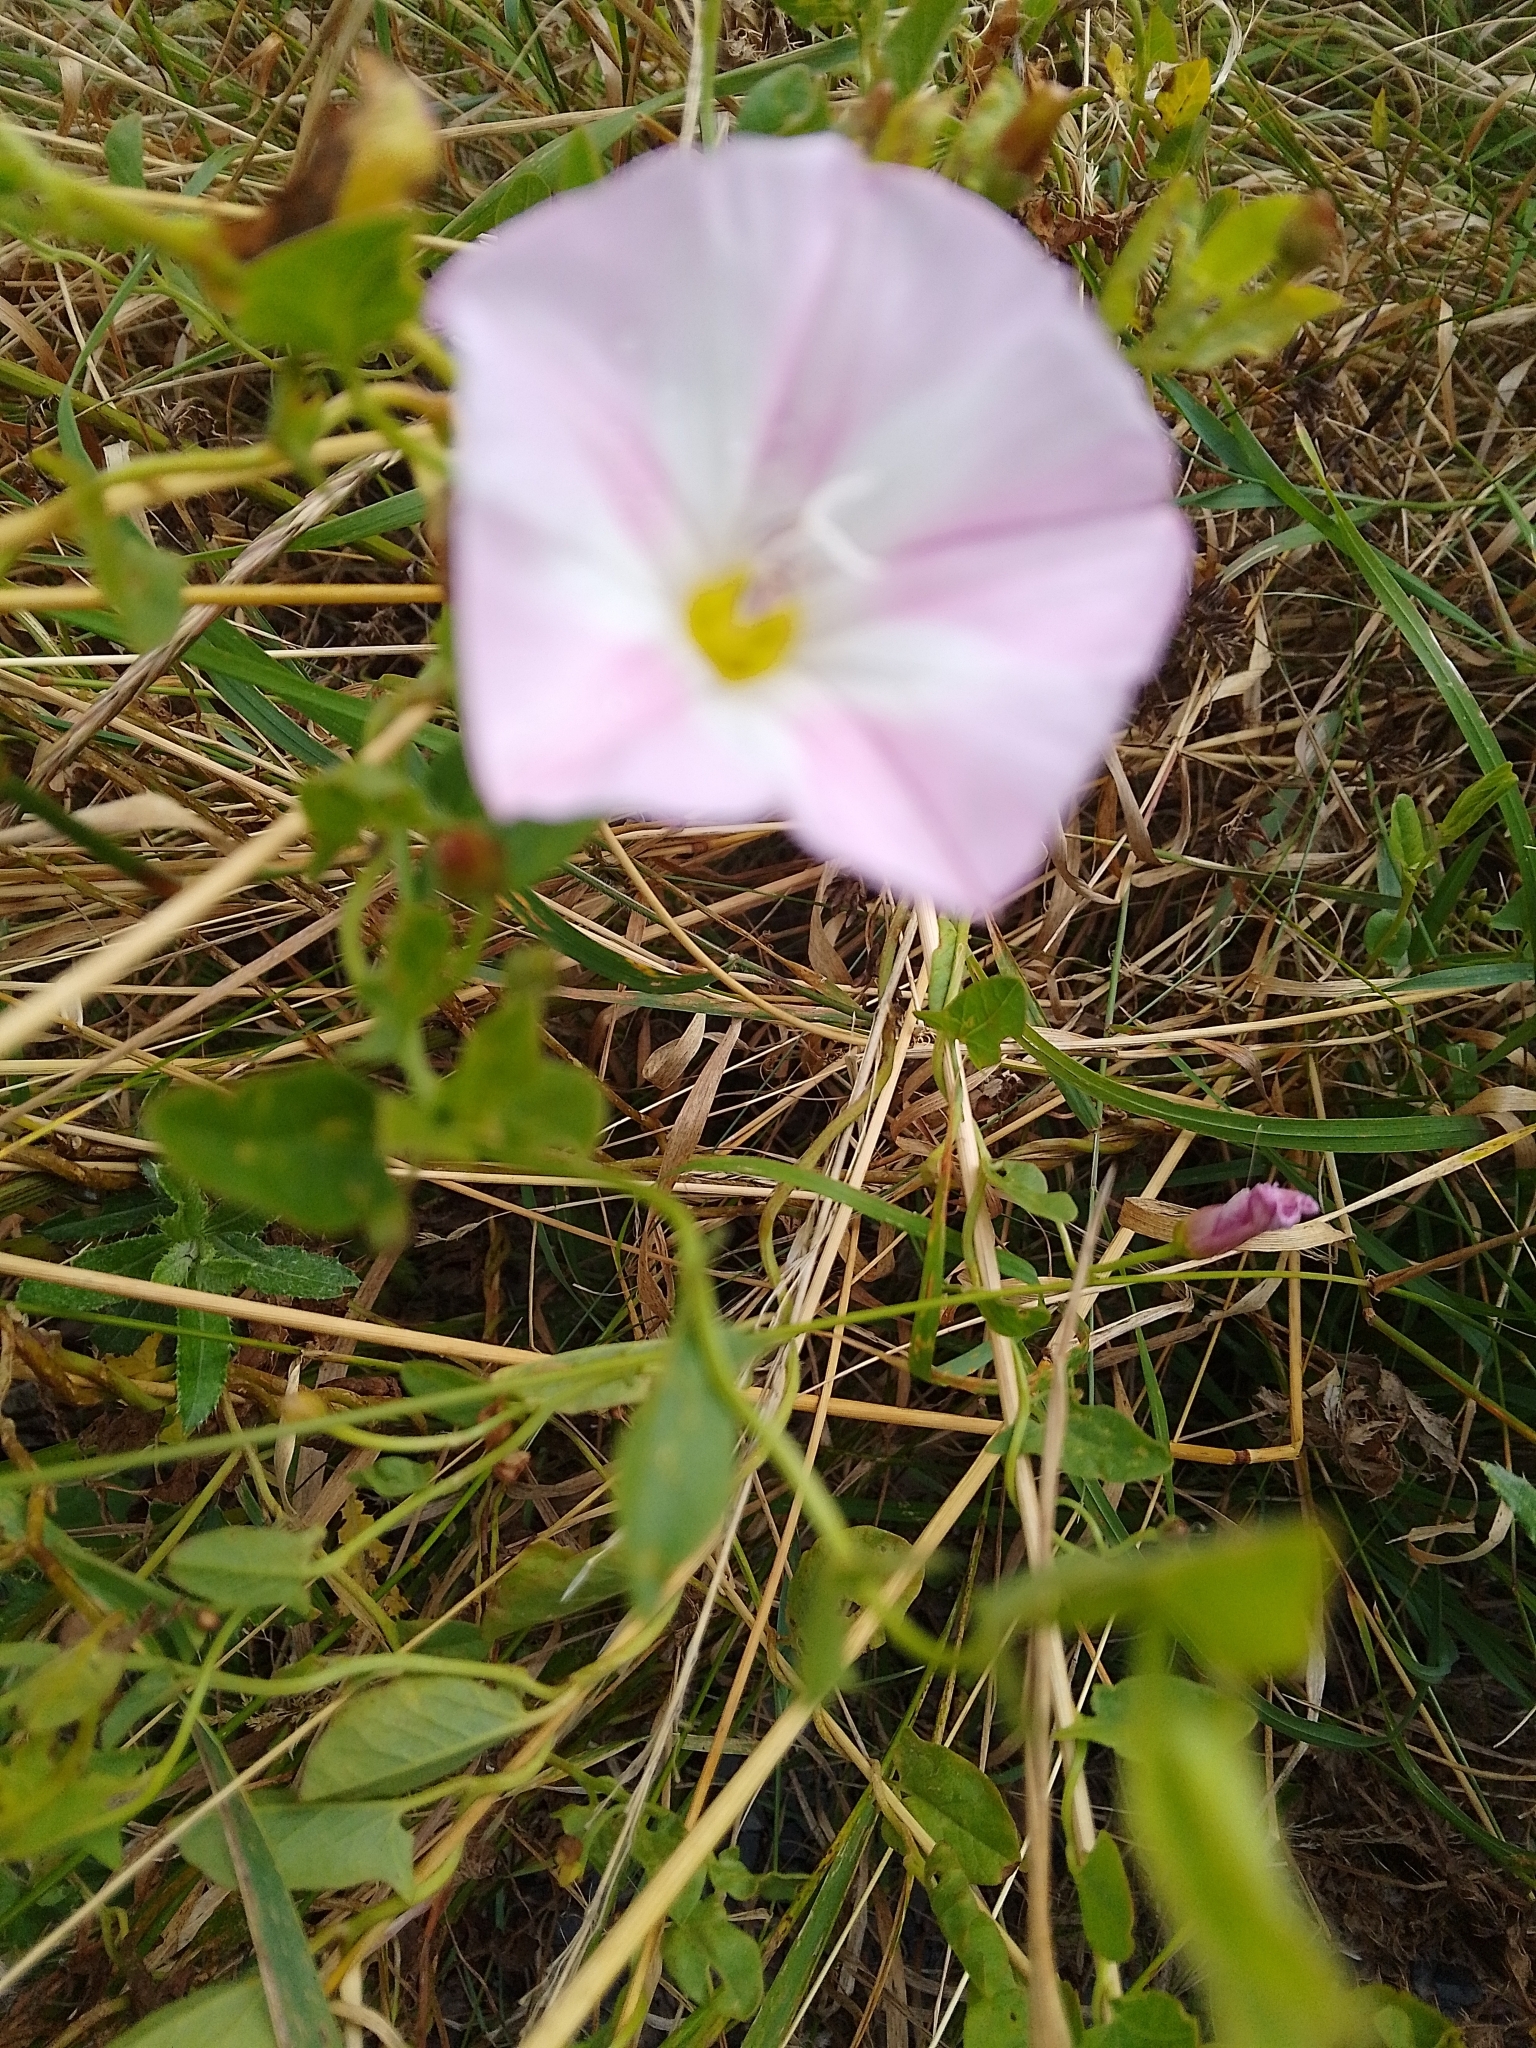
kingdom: Plantae
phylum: Tracheophyta
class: Magnoliopsida
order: Solanales
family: Convolvulaceae
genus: Convolvulus
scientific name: Convolvulus arvensis
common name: Field bindweed
